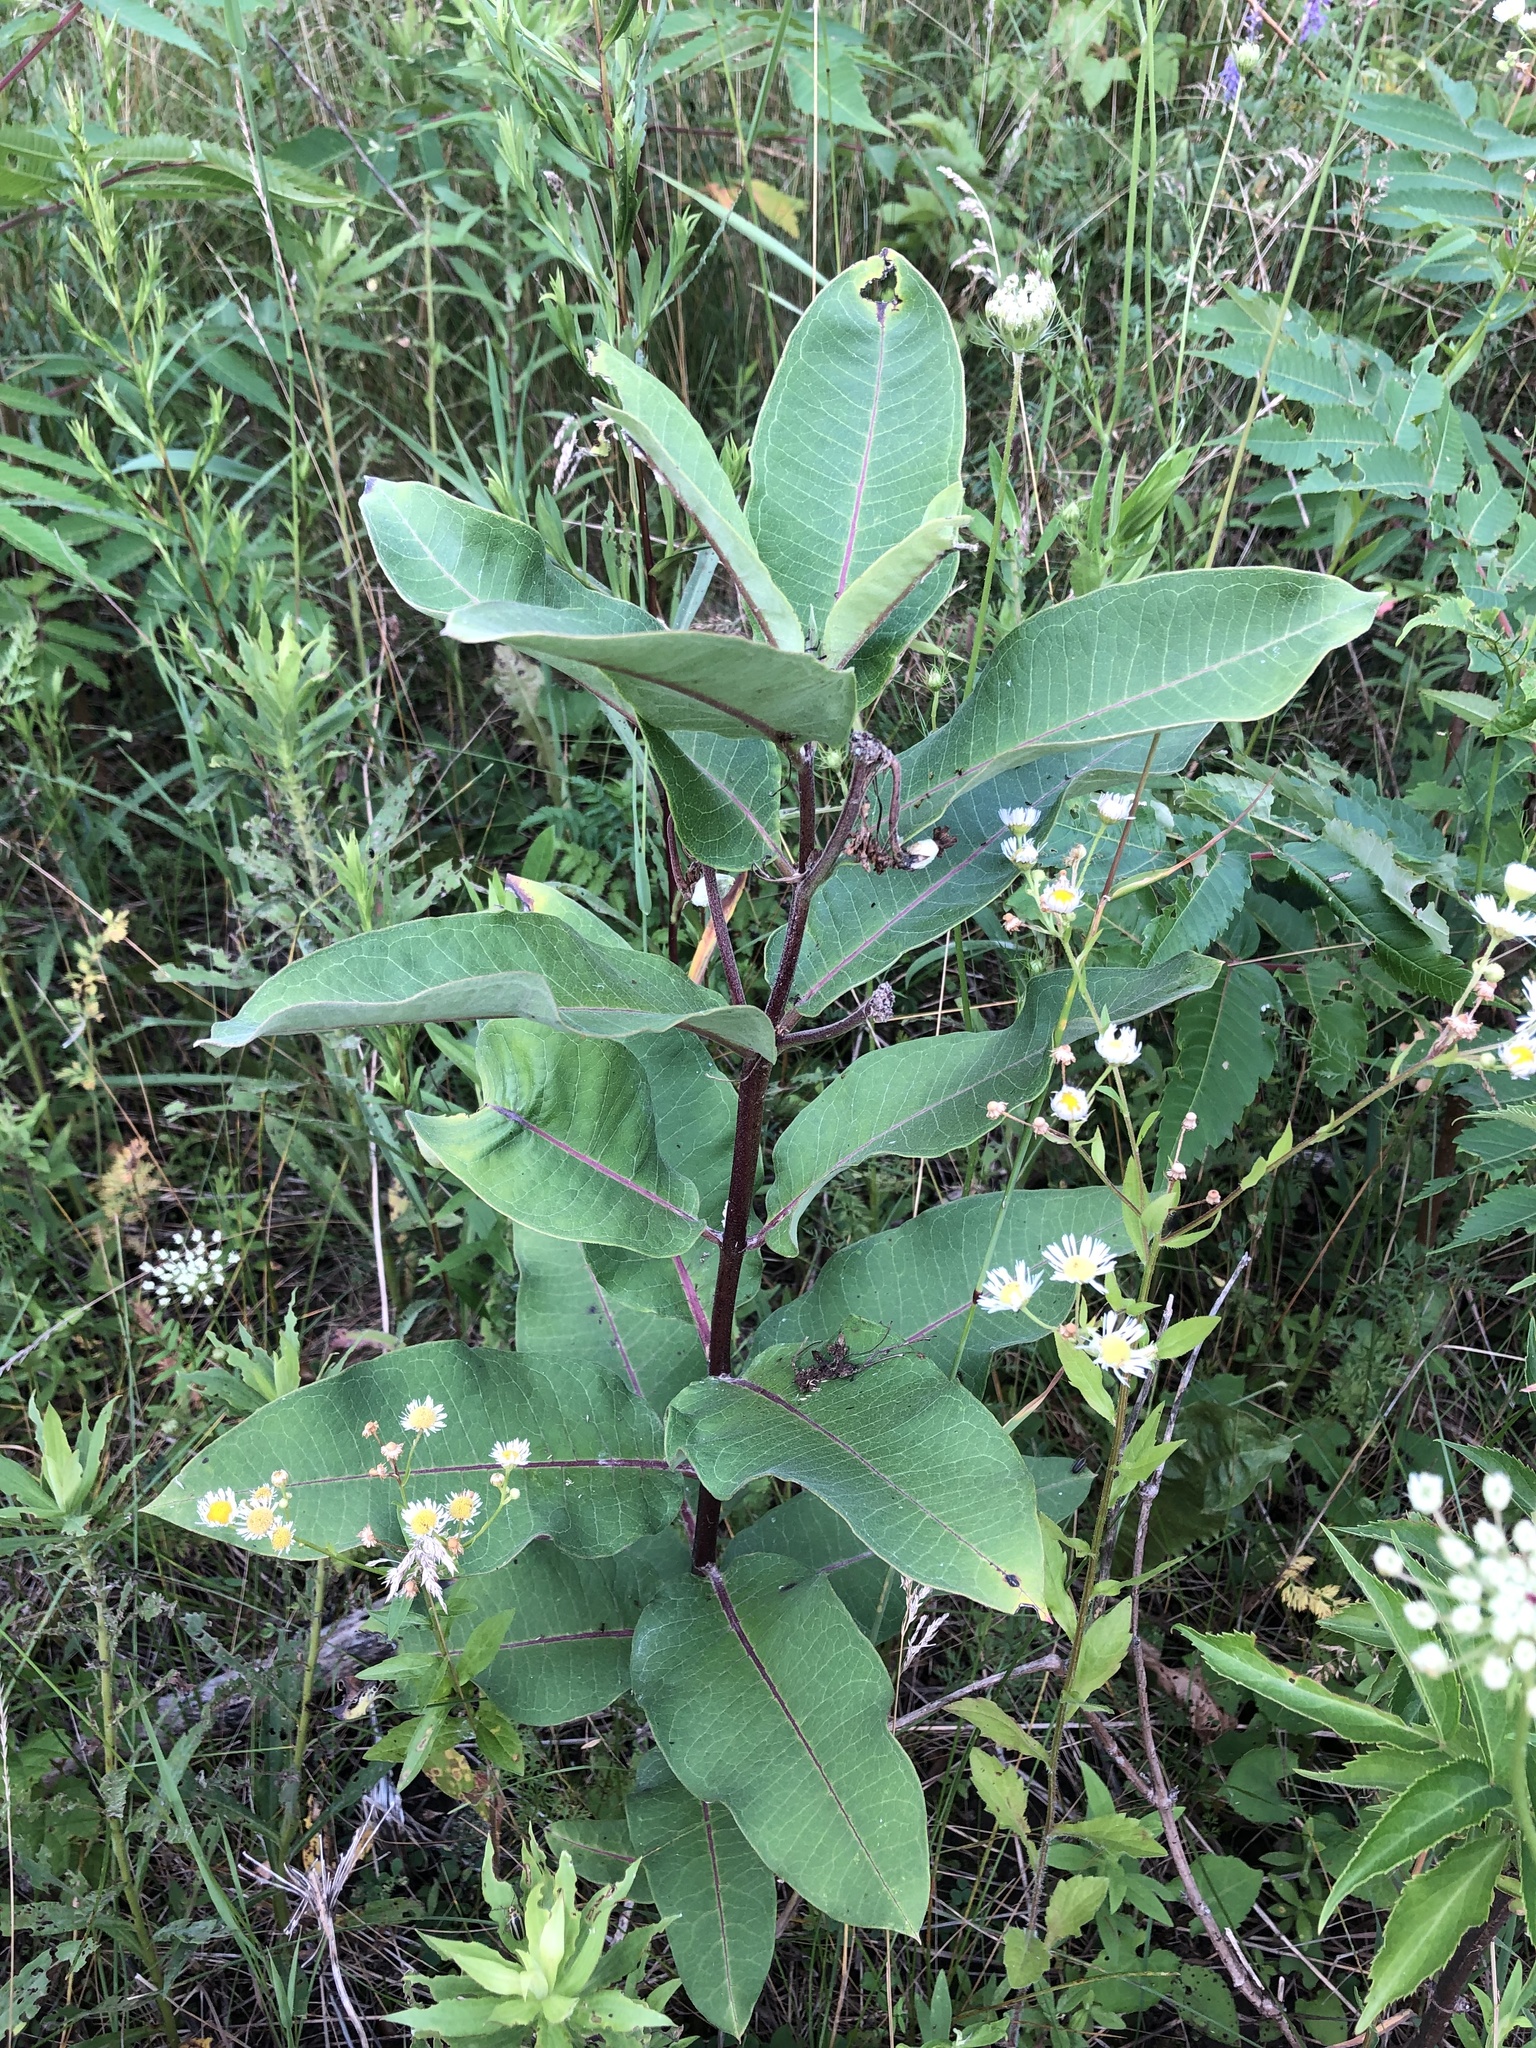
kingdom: Plantae
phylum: Tracheophyta
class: Magnoliopsida
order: Gentianales
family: Apocynaceae
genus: Asclepias
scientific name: Asclepias syriaca
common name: Common milkweed
